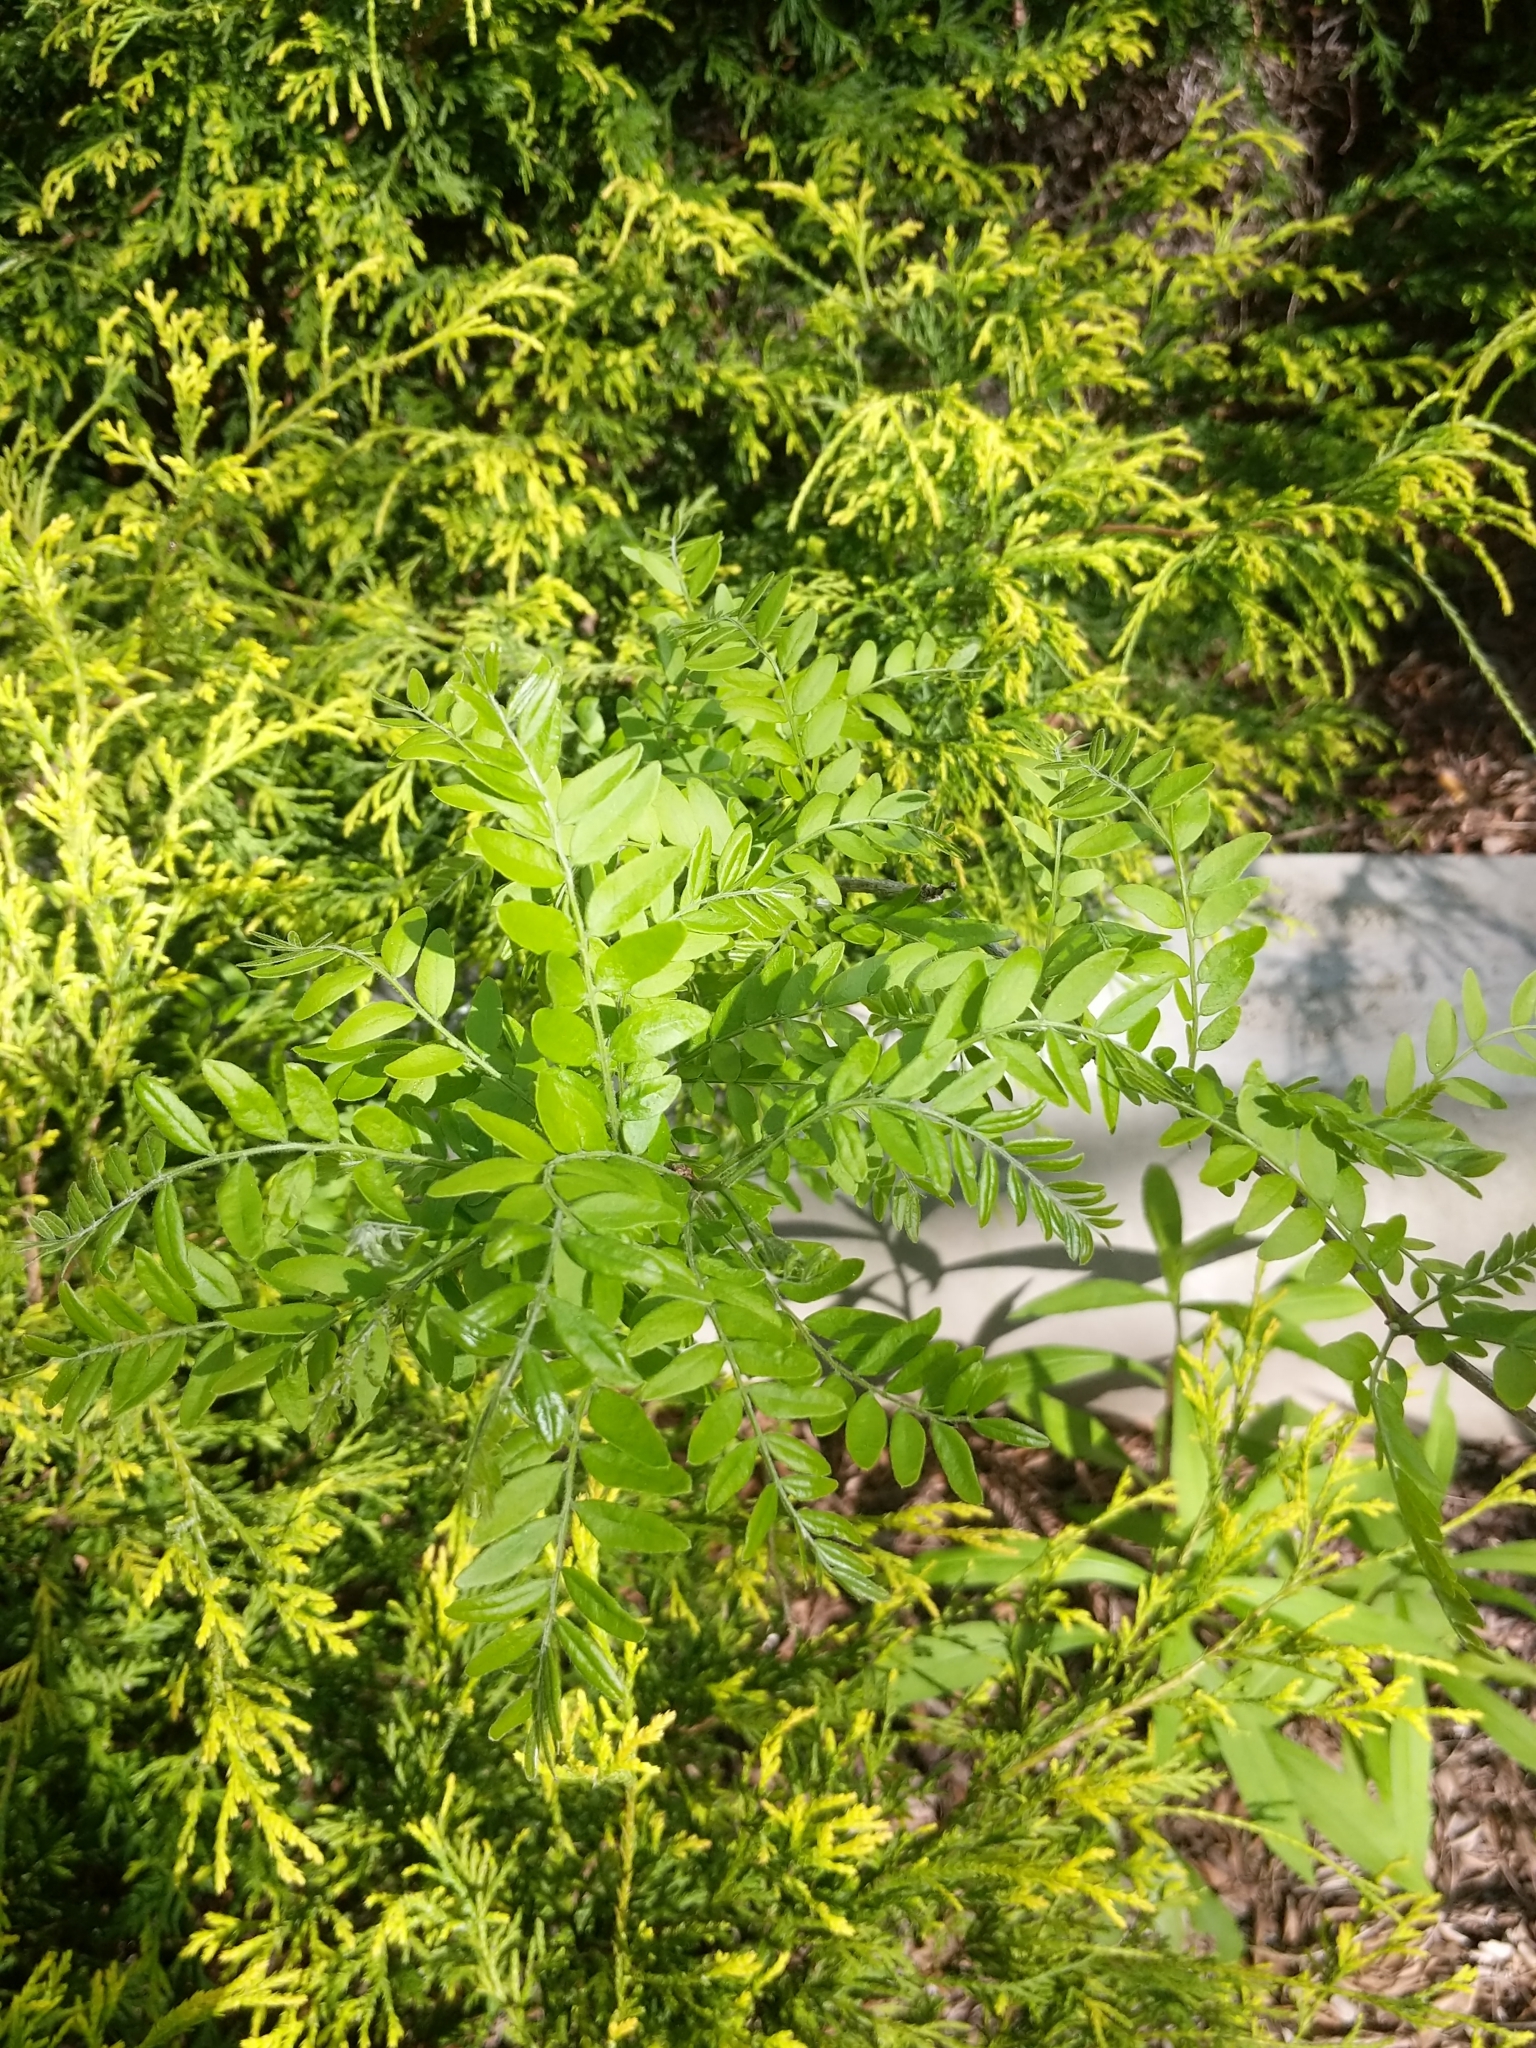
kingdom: Plantae
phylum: Tracheophyta
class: Magnoliopsida
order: Fabales
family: Fabaceae
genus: Gleditsia
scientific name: Gleditsia triacanthos
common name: Common honeylocust
